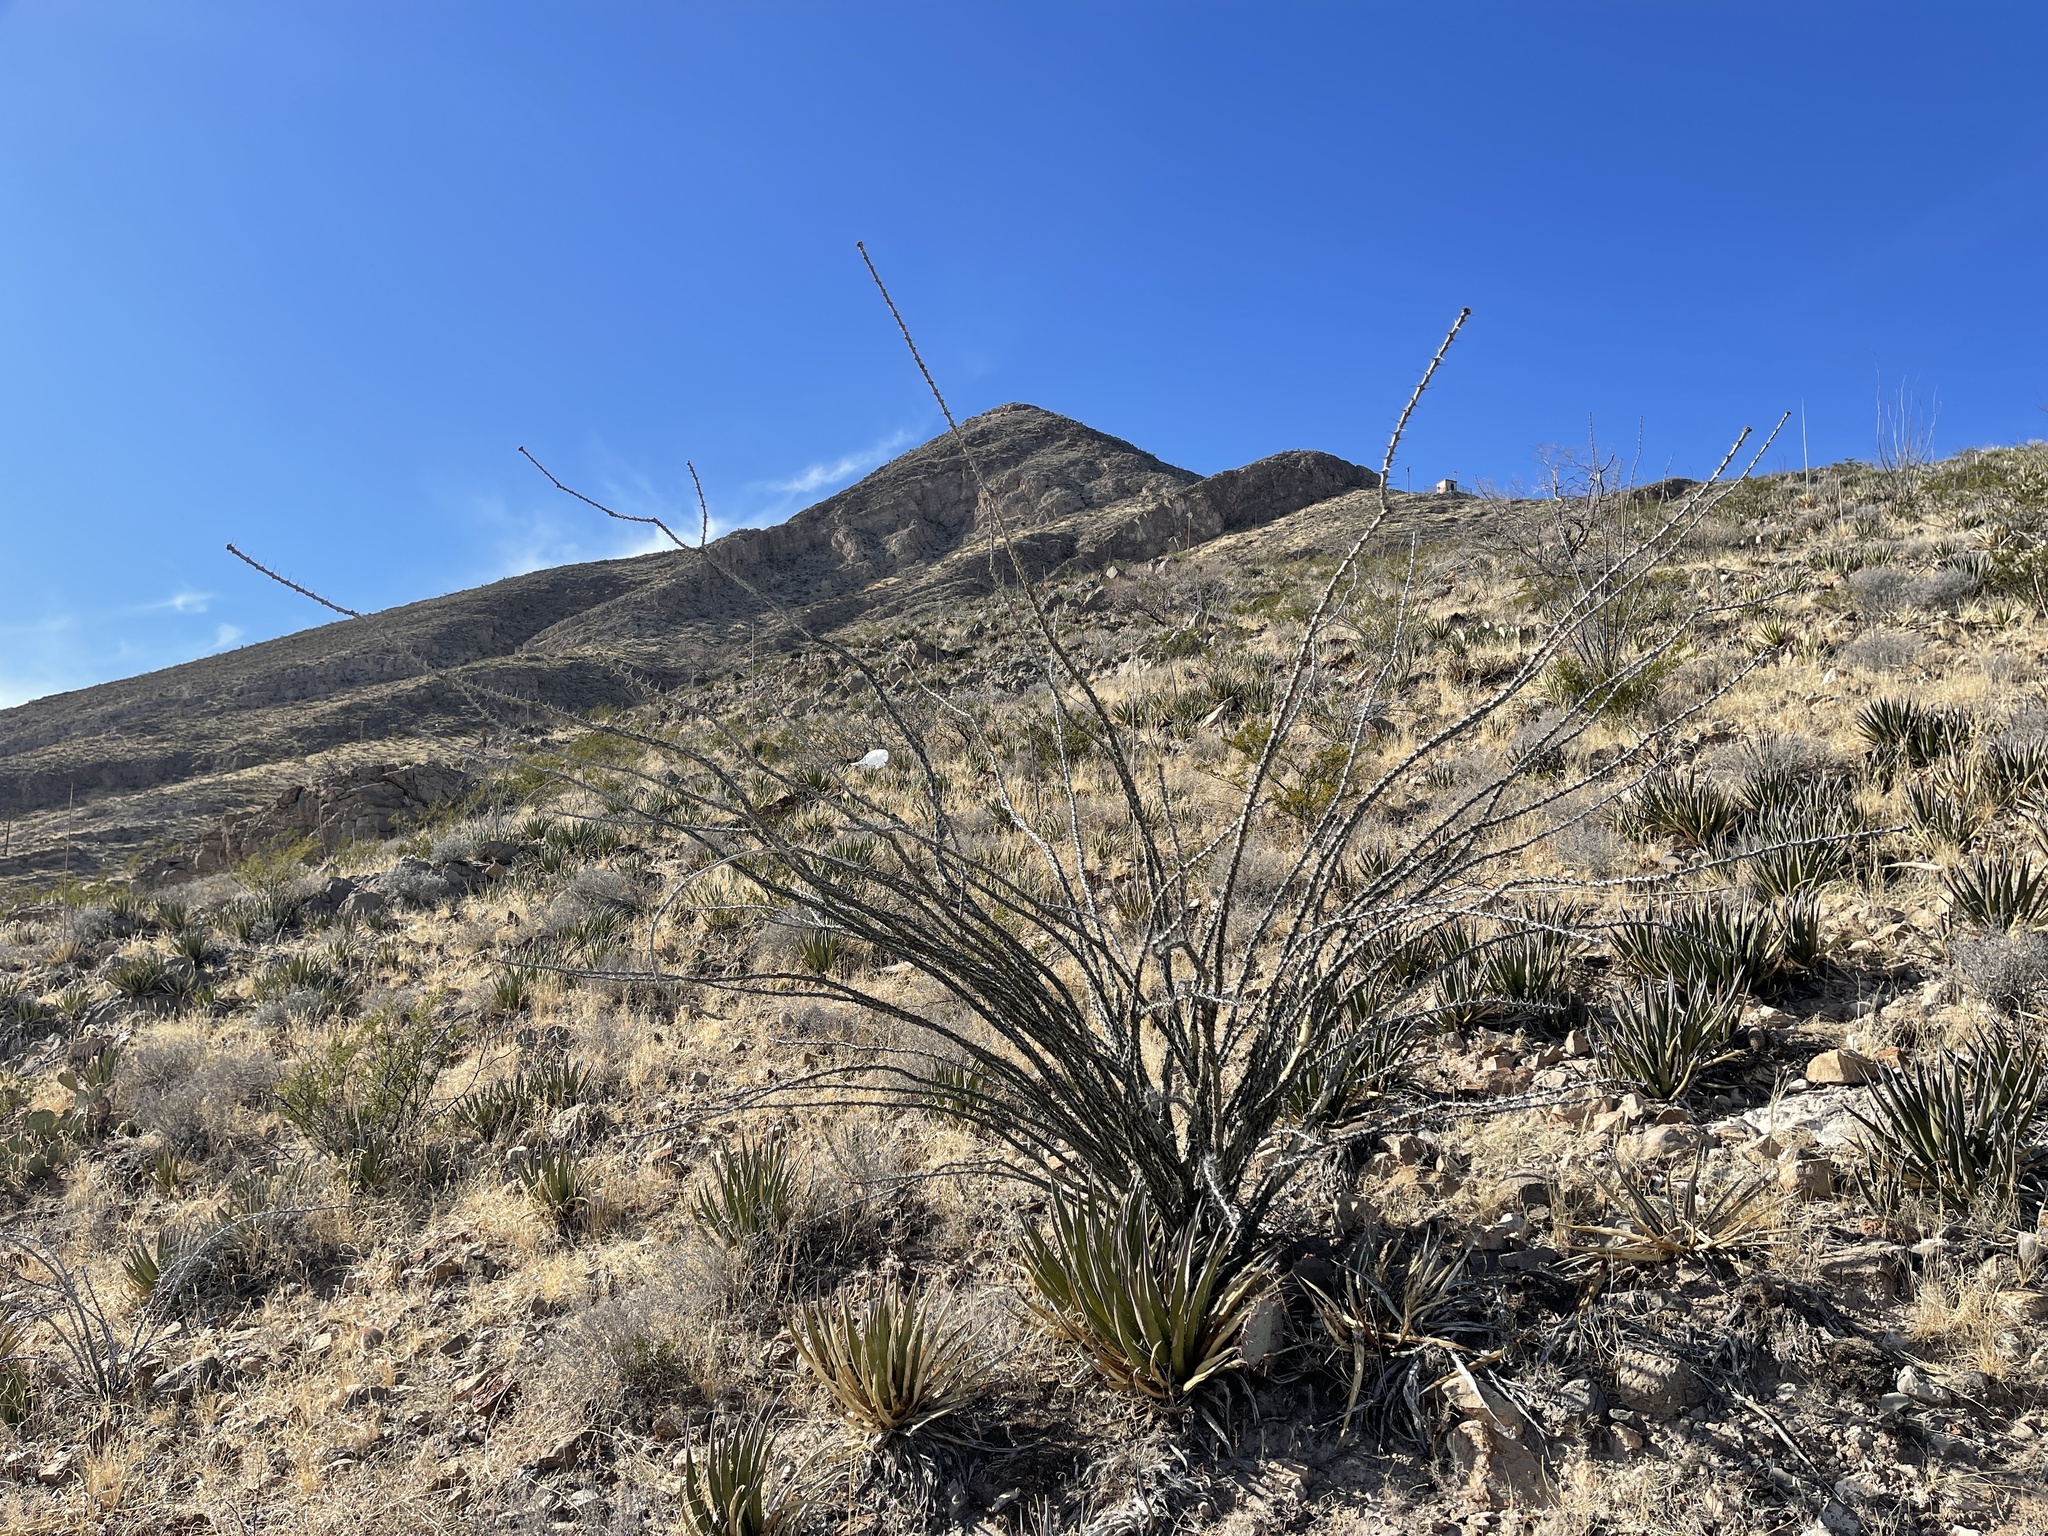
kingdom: Plantae
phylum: Tracheophyta
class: Magnoliopsida
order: Ericales
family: Fouquieriaceae
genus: Fouquieria
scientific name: Fouquieria splendens
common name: Vine-cactus
